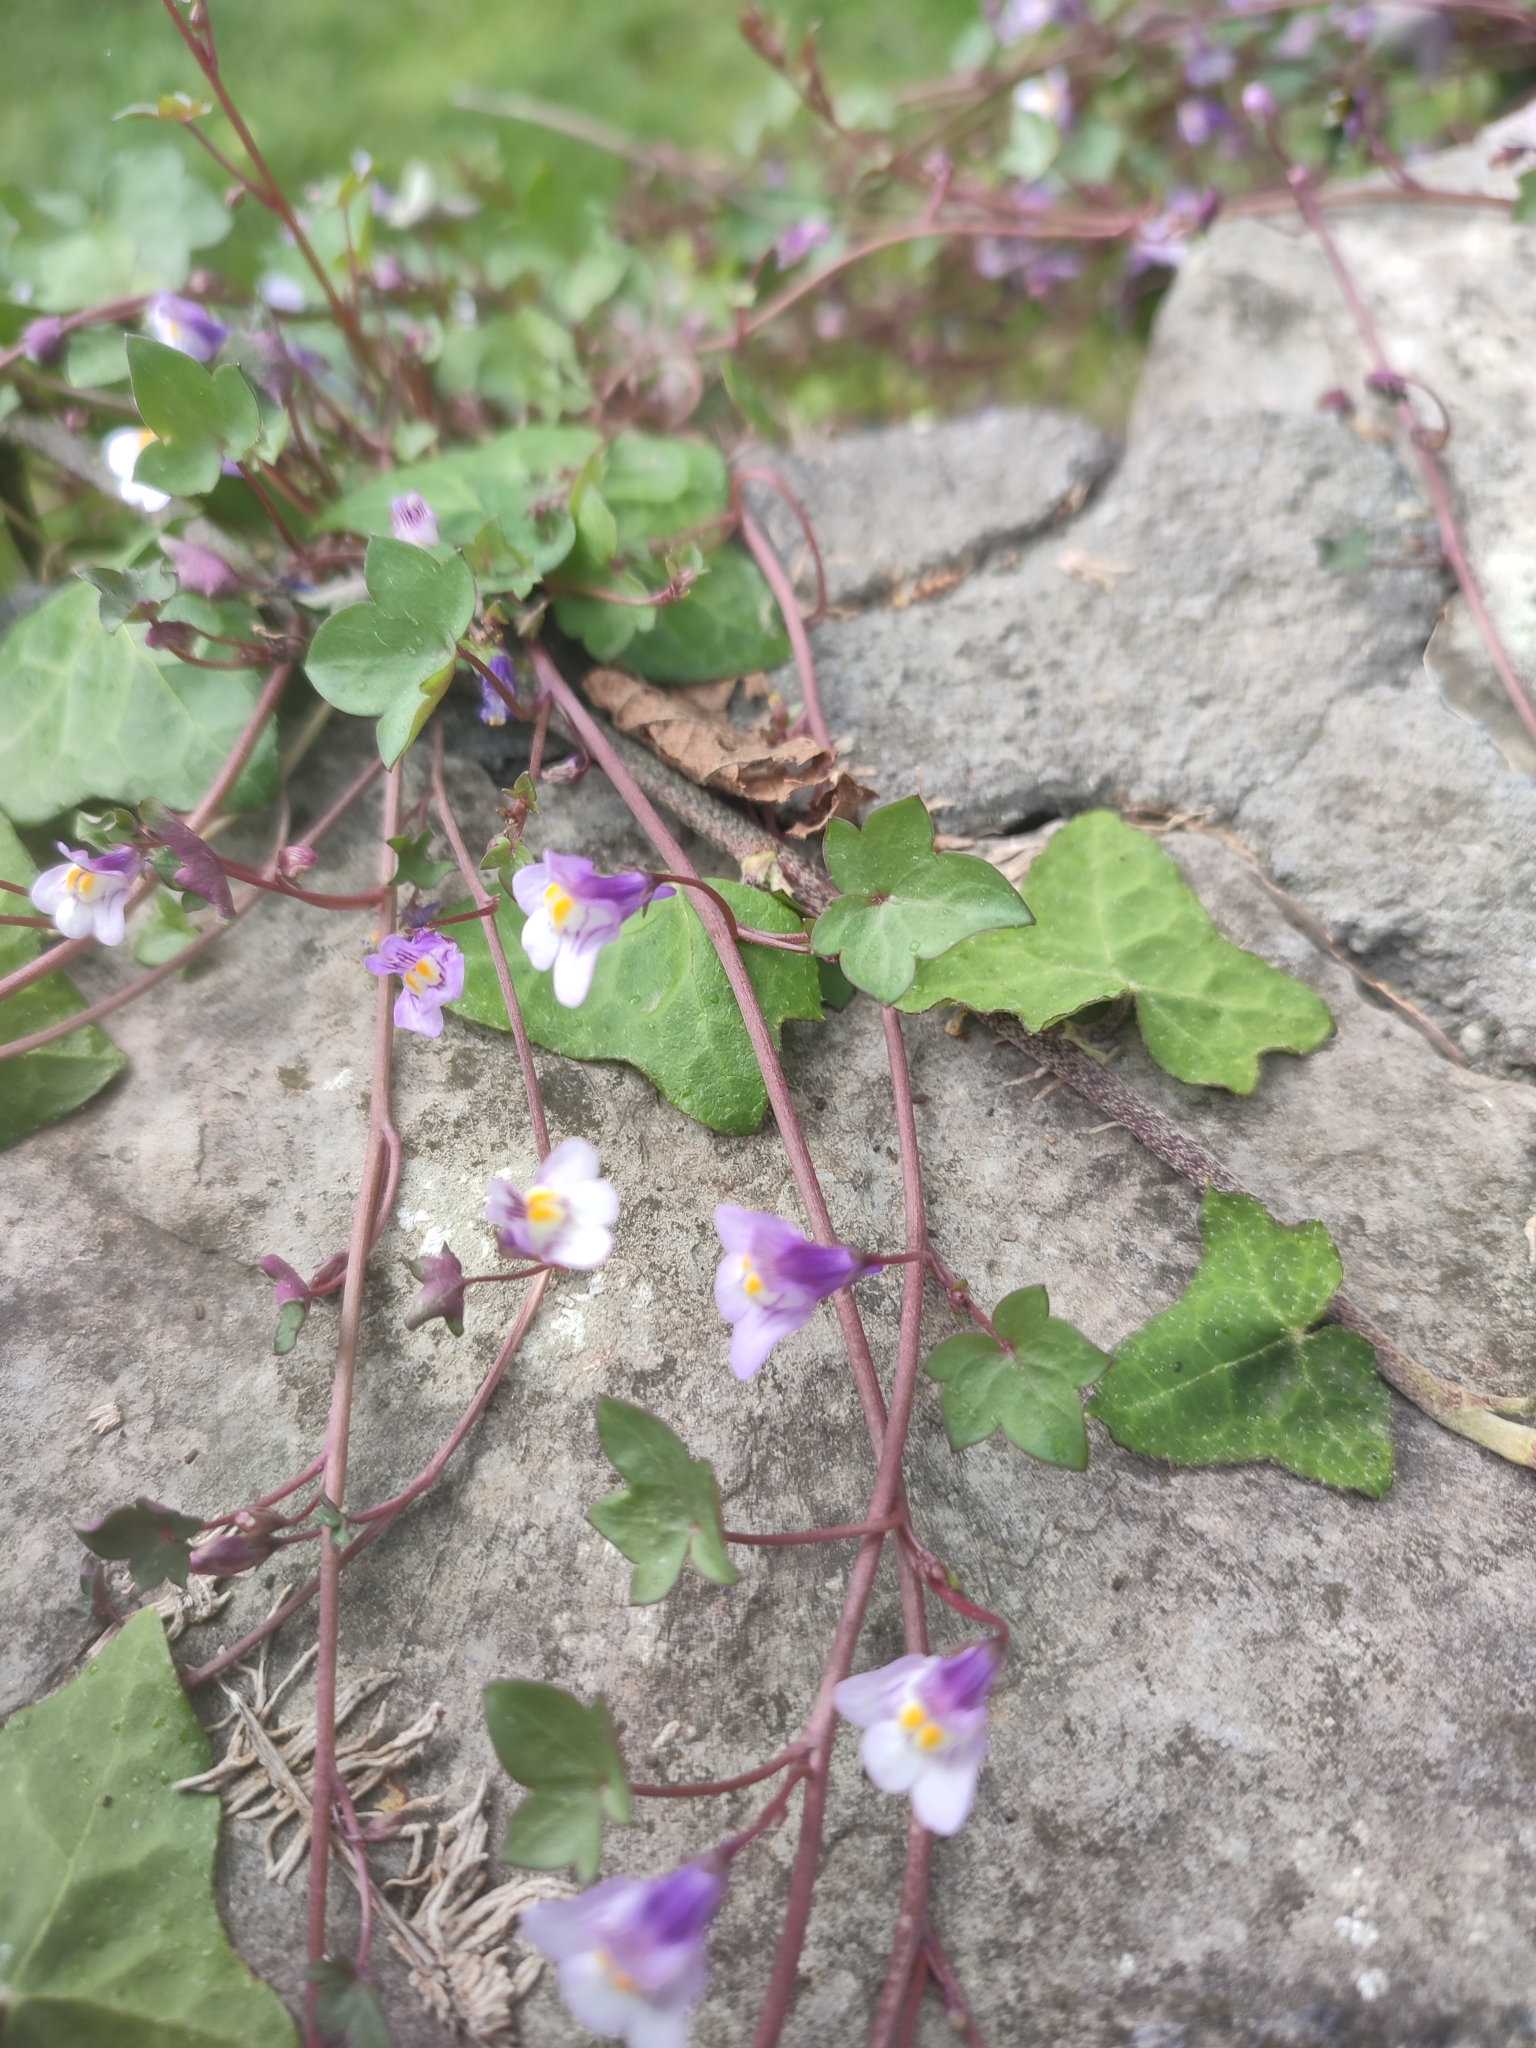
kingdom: Plantae
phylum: Tracheophyta
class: Magnoliopsida
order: Lamiales
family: Plantaginaceae
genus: Cymbalaria
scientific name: Cymbalaria muralis
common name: Ivy-leaved toadflax
